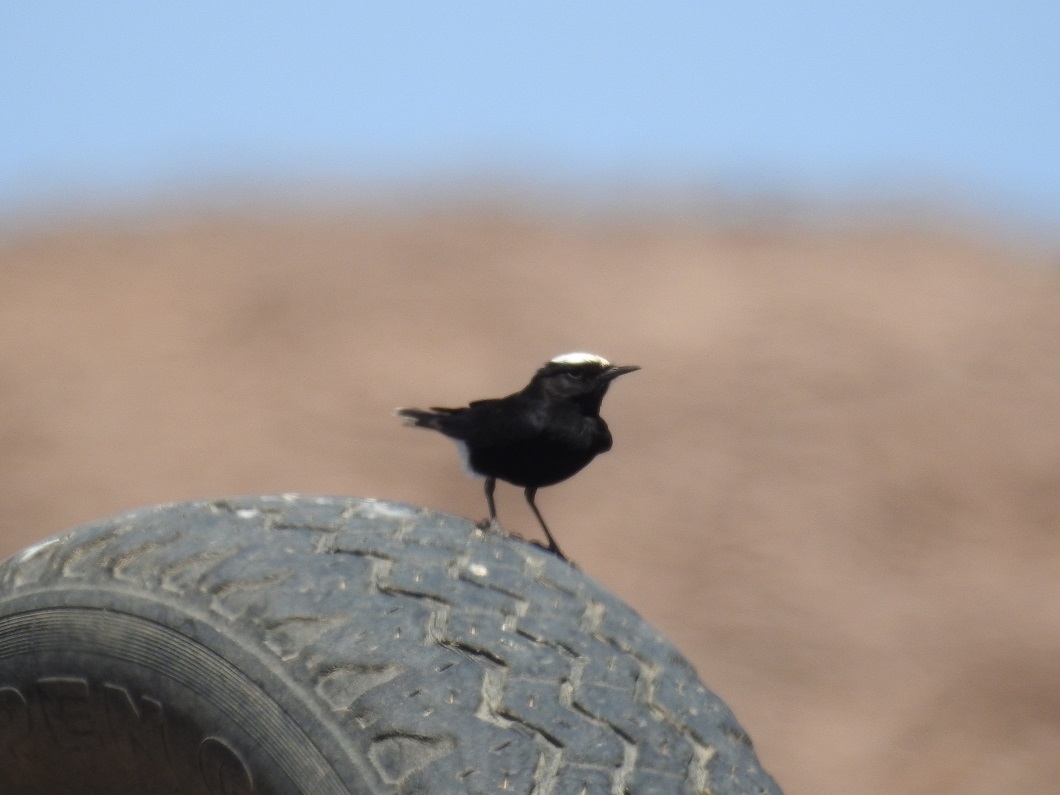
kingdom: Animalia
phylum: Chordata
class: Aves
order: Passeriformes
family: Muscicapidae
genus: Oenanthe
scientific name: Oenanthe leucopyga
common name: White-crowned wheatear
